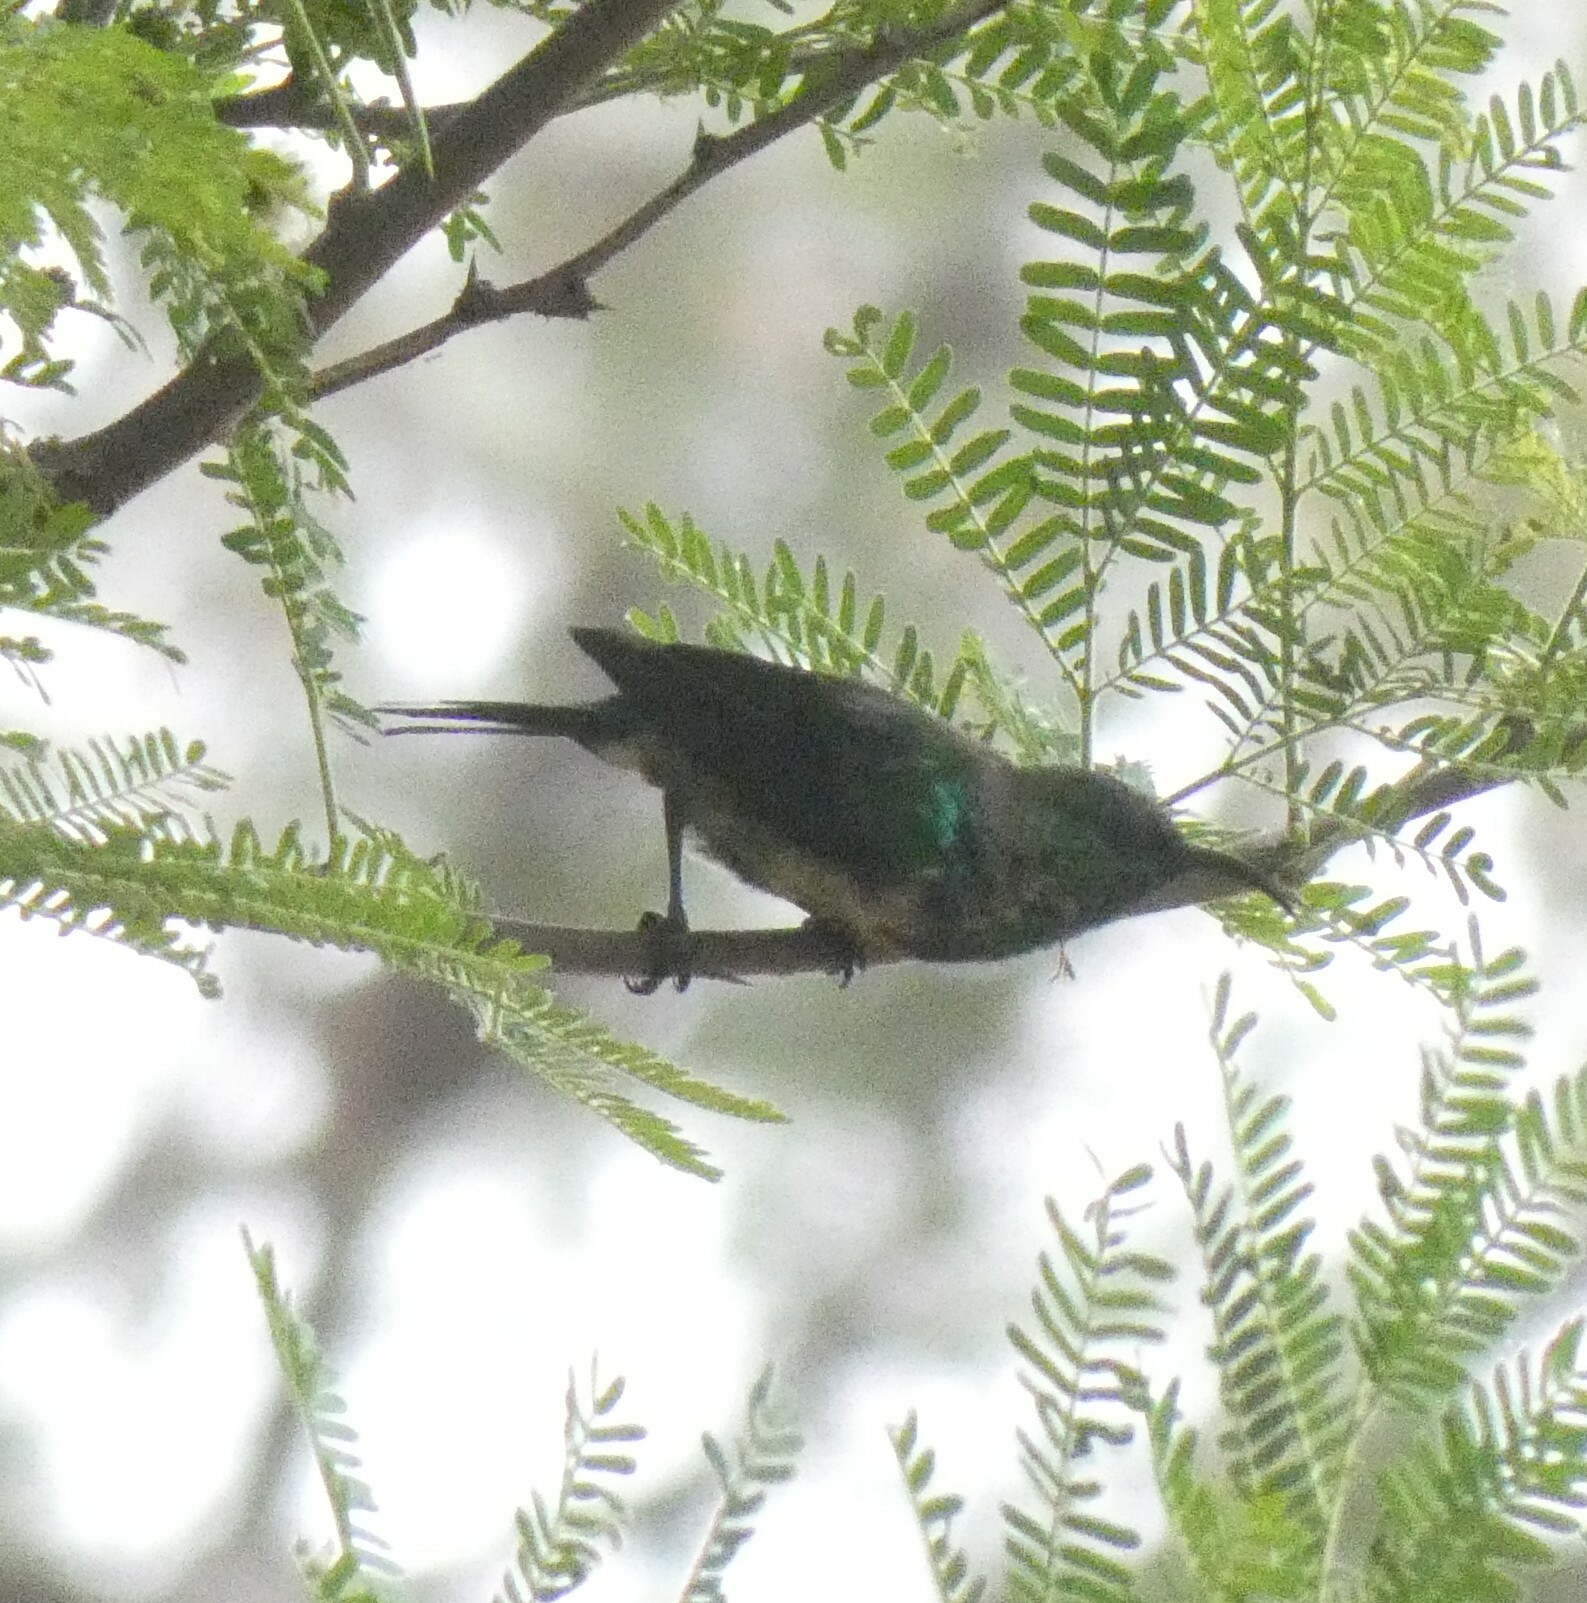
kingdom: Animalia
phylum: Chordata
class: Aves
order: Passeriformes
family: Nectariniidae
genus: Cinnyris
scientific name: Cinnyris mariquensis
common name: Marico sunbird
